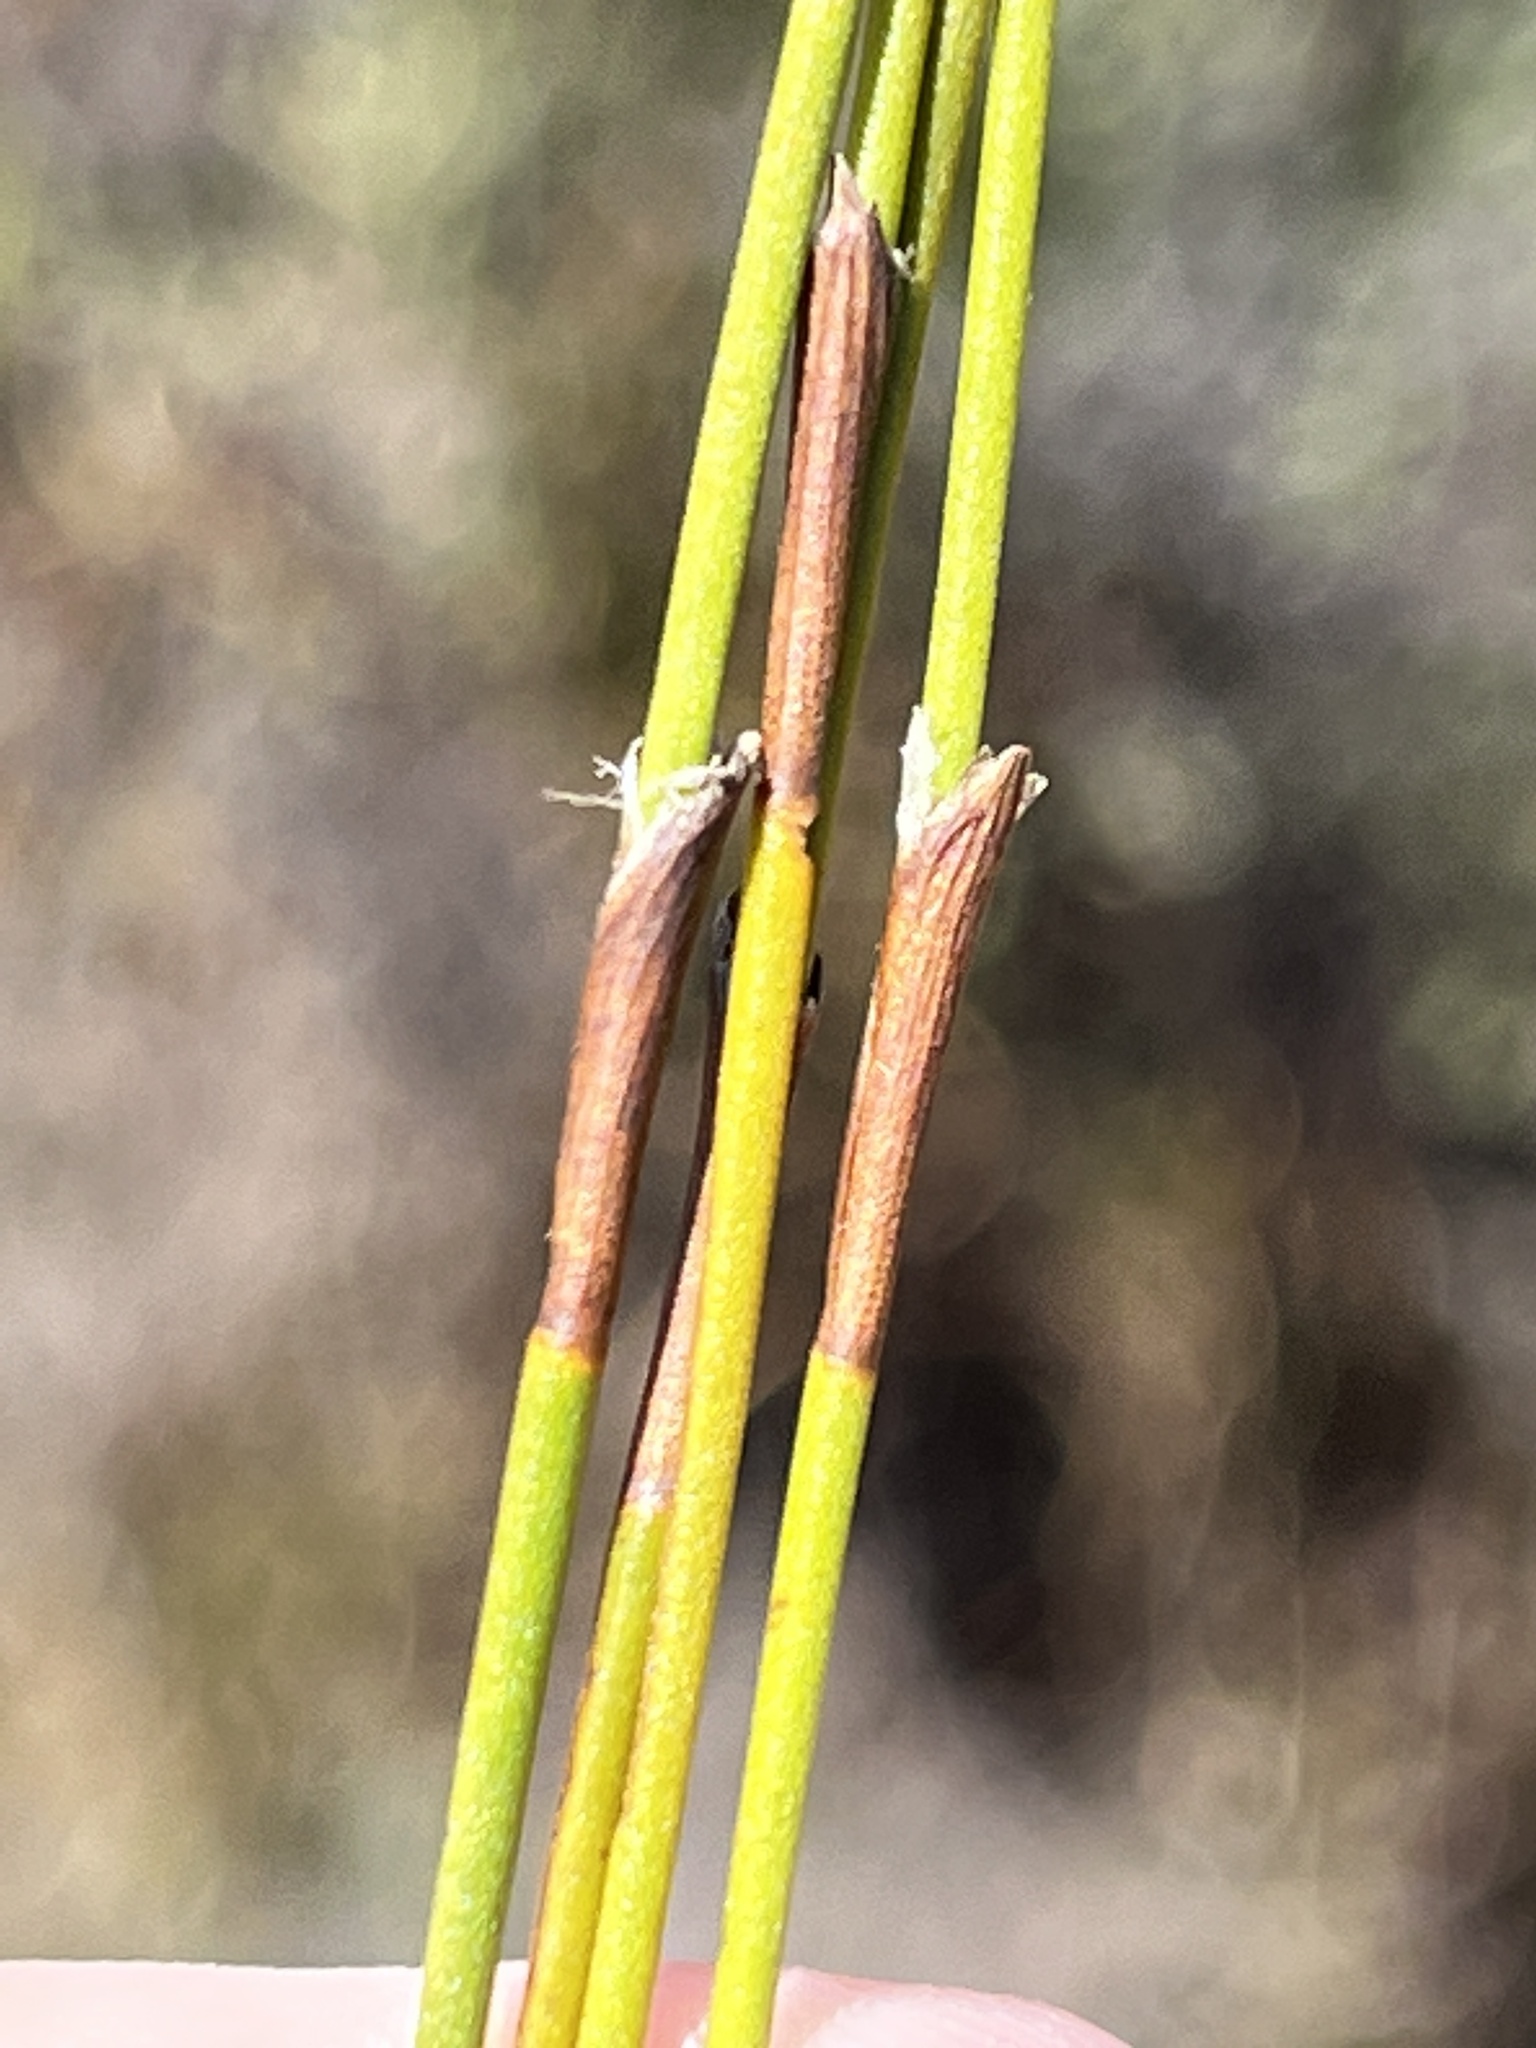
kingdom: Plantae
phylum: Tracheophyta
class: Liliopsida
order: Poales
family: Restionaceae
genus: Restio
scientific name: Restio capensis
